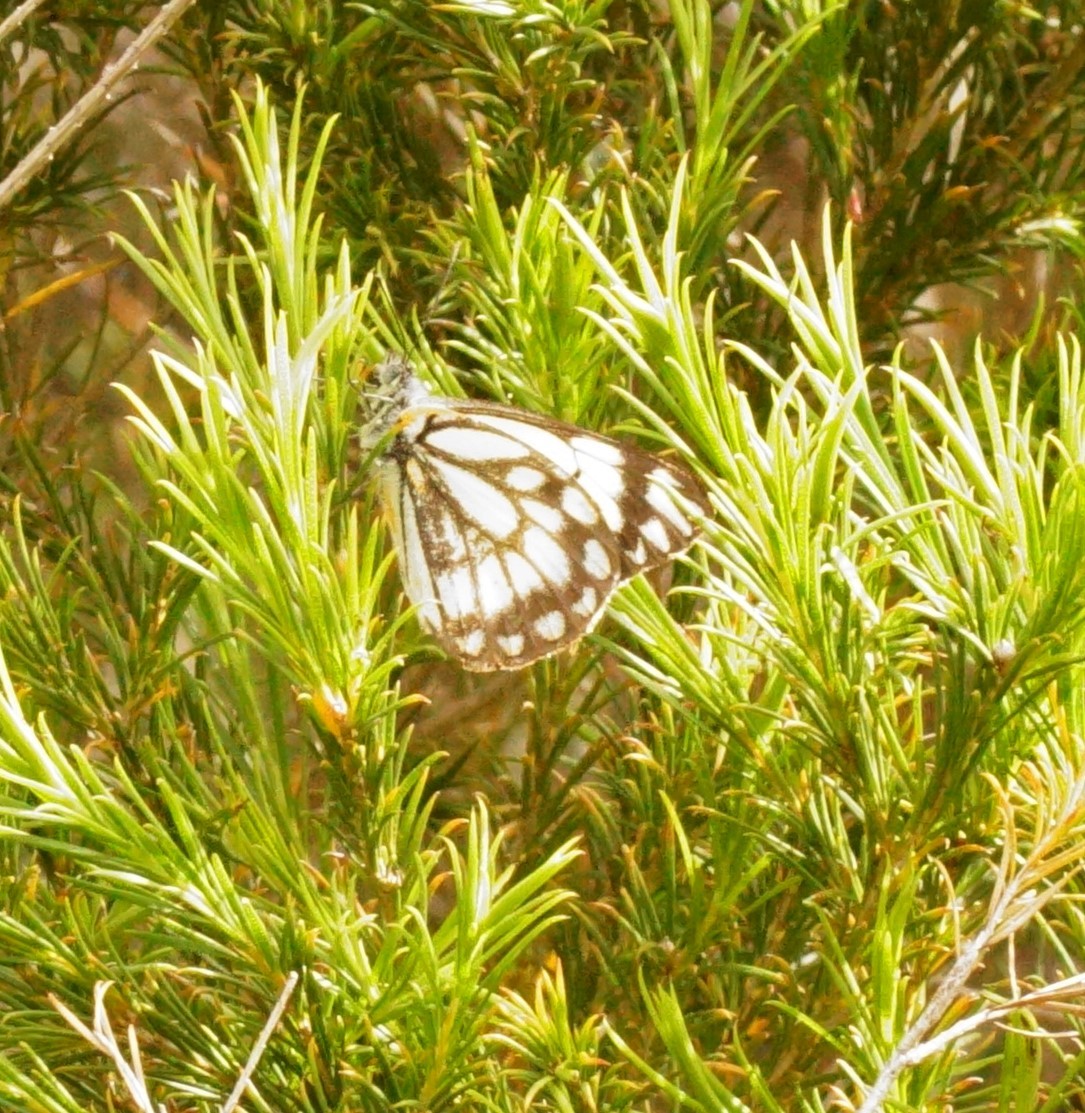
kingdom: Animalia
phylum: Arthropoda
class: Insecta
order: Lepidoptera
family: Pieridae
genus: Belenois
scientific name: Belenois java
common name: Caper white
